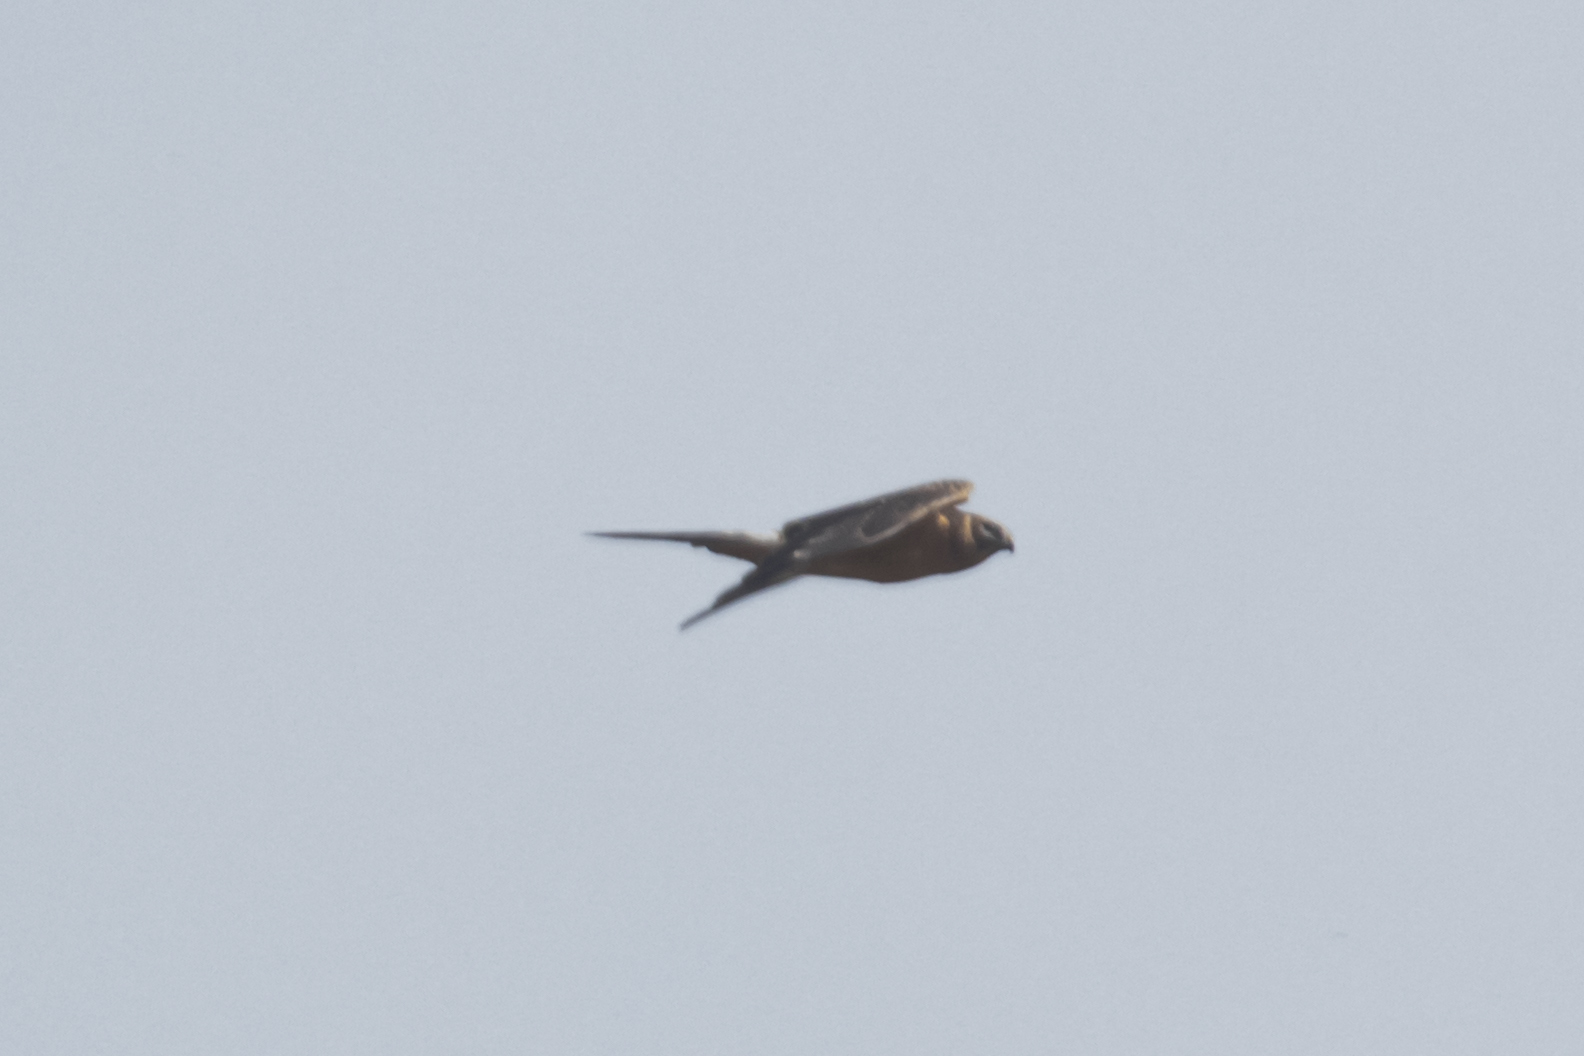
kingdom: Animalia
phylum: Chordata
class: Aves
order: Accipitriformes
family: Accipitridae
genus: Circus
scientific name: Circus macrourus
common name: Pallid harrier
